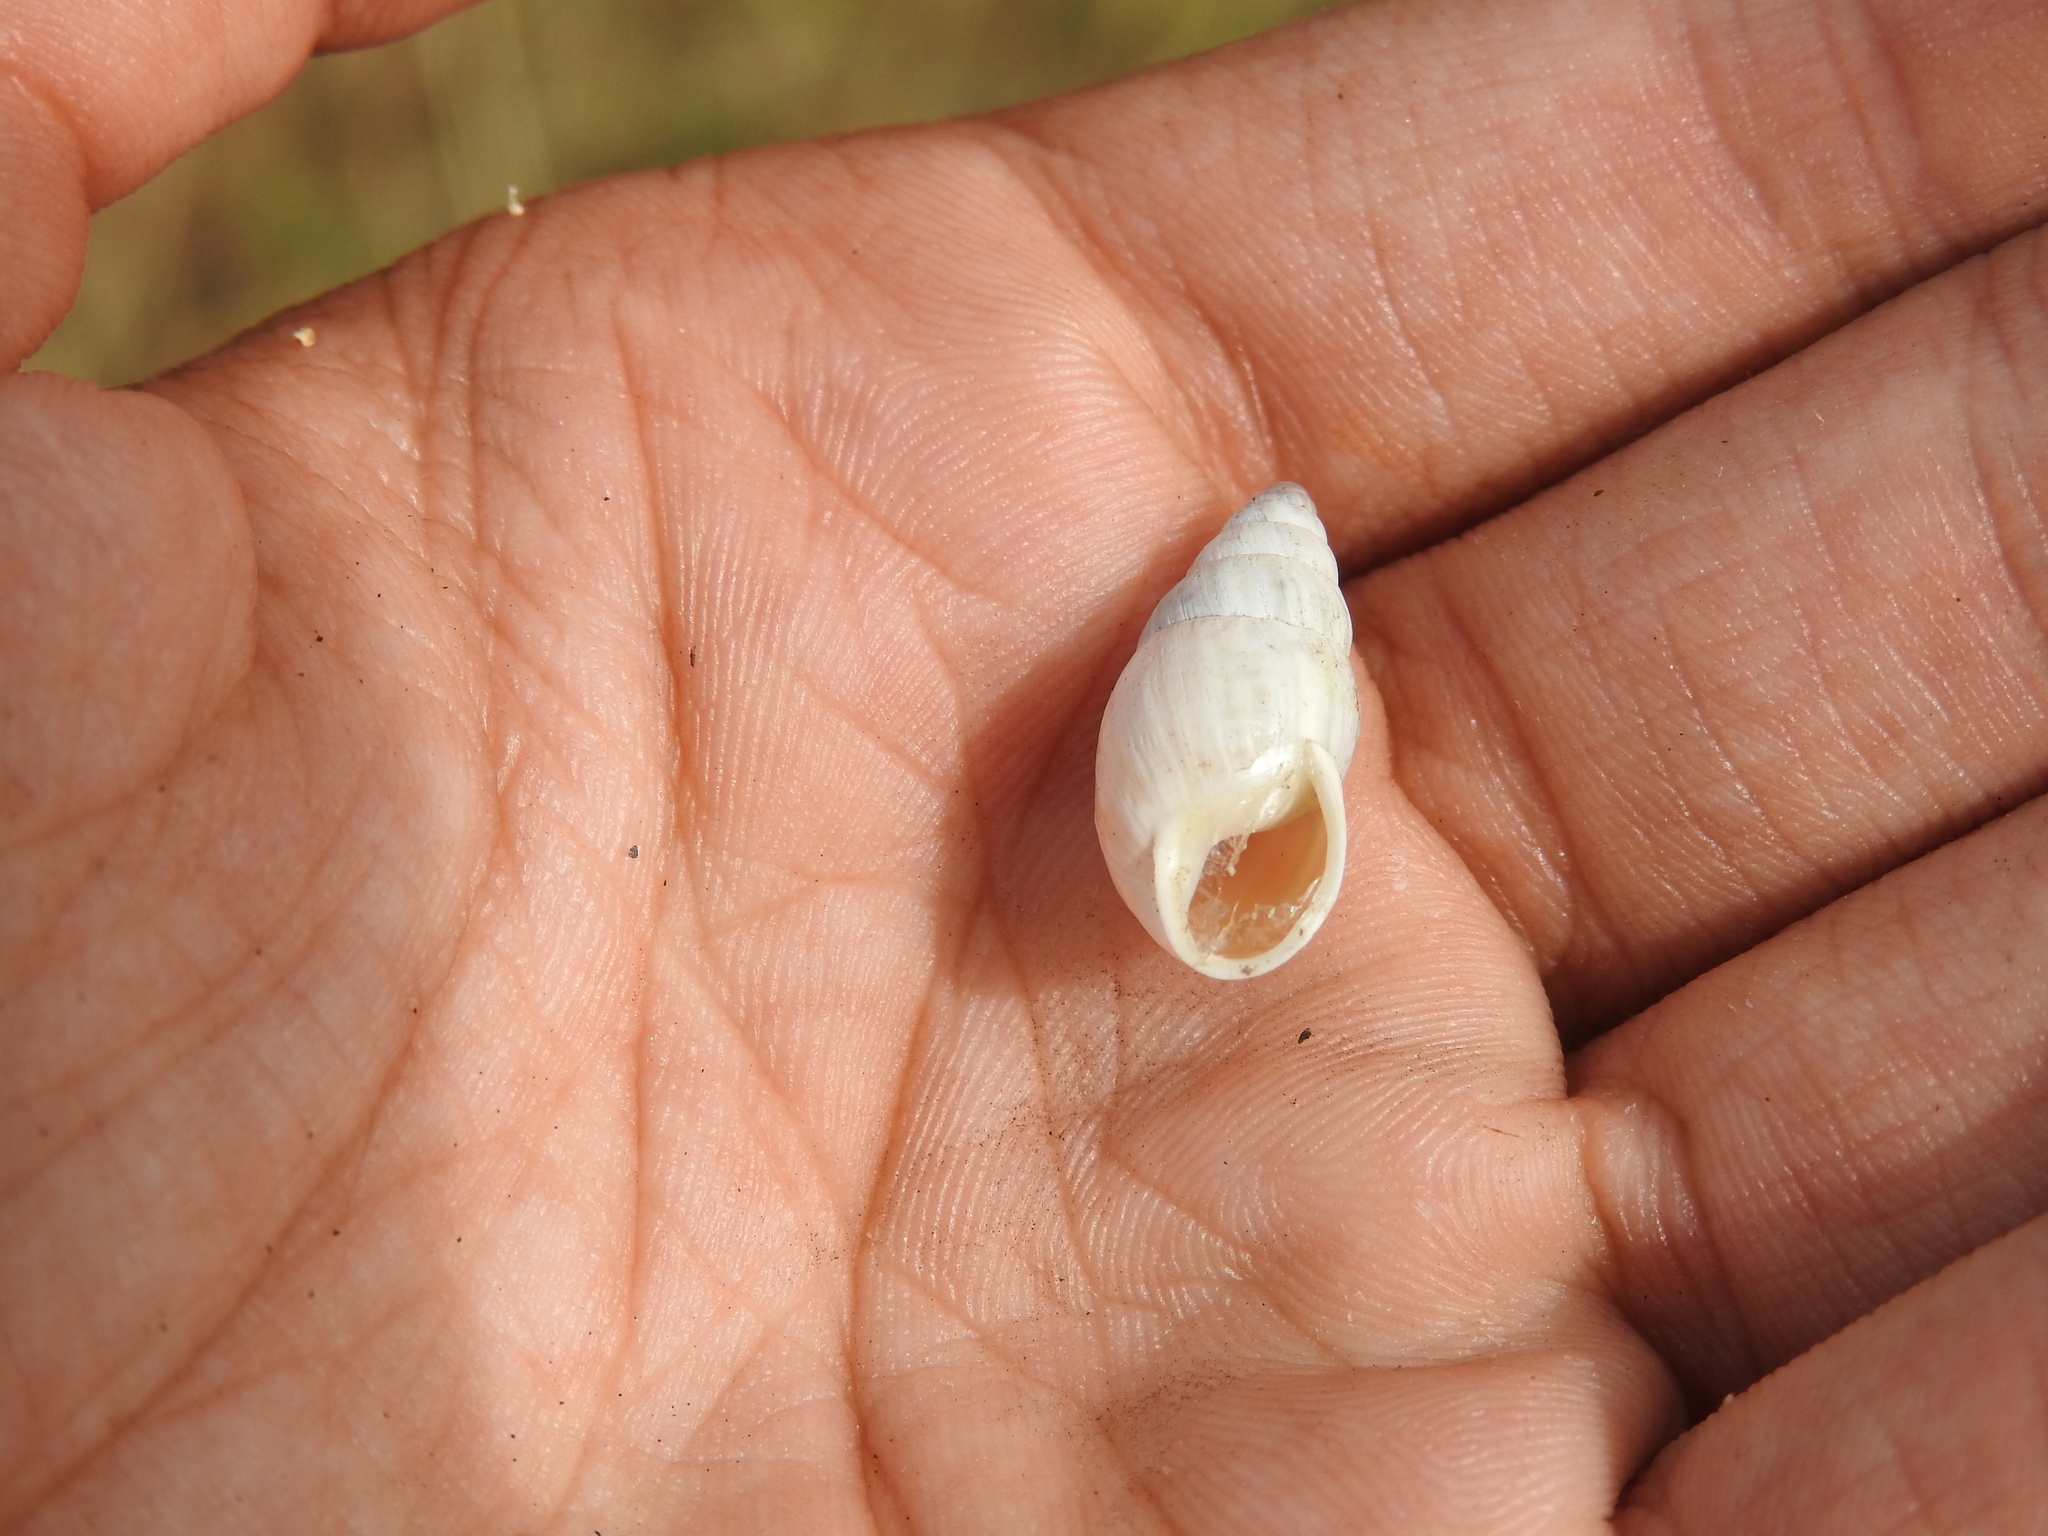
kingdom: Animalia
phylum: Mollusca
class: Gastropoda
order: Stylommatophora
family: Enidae
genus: Zebrina
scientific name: Zebrina detrita
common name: Large bulin
